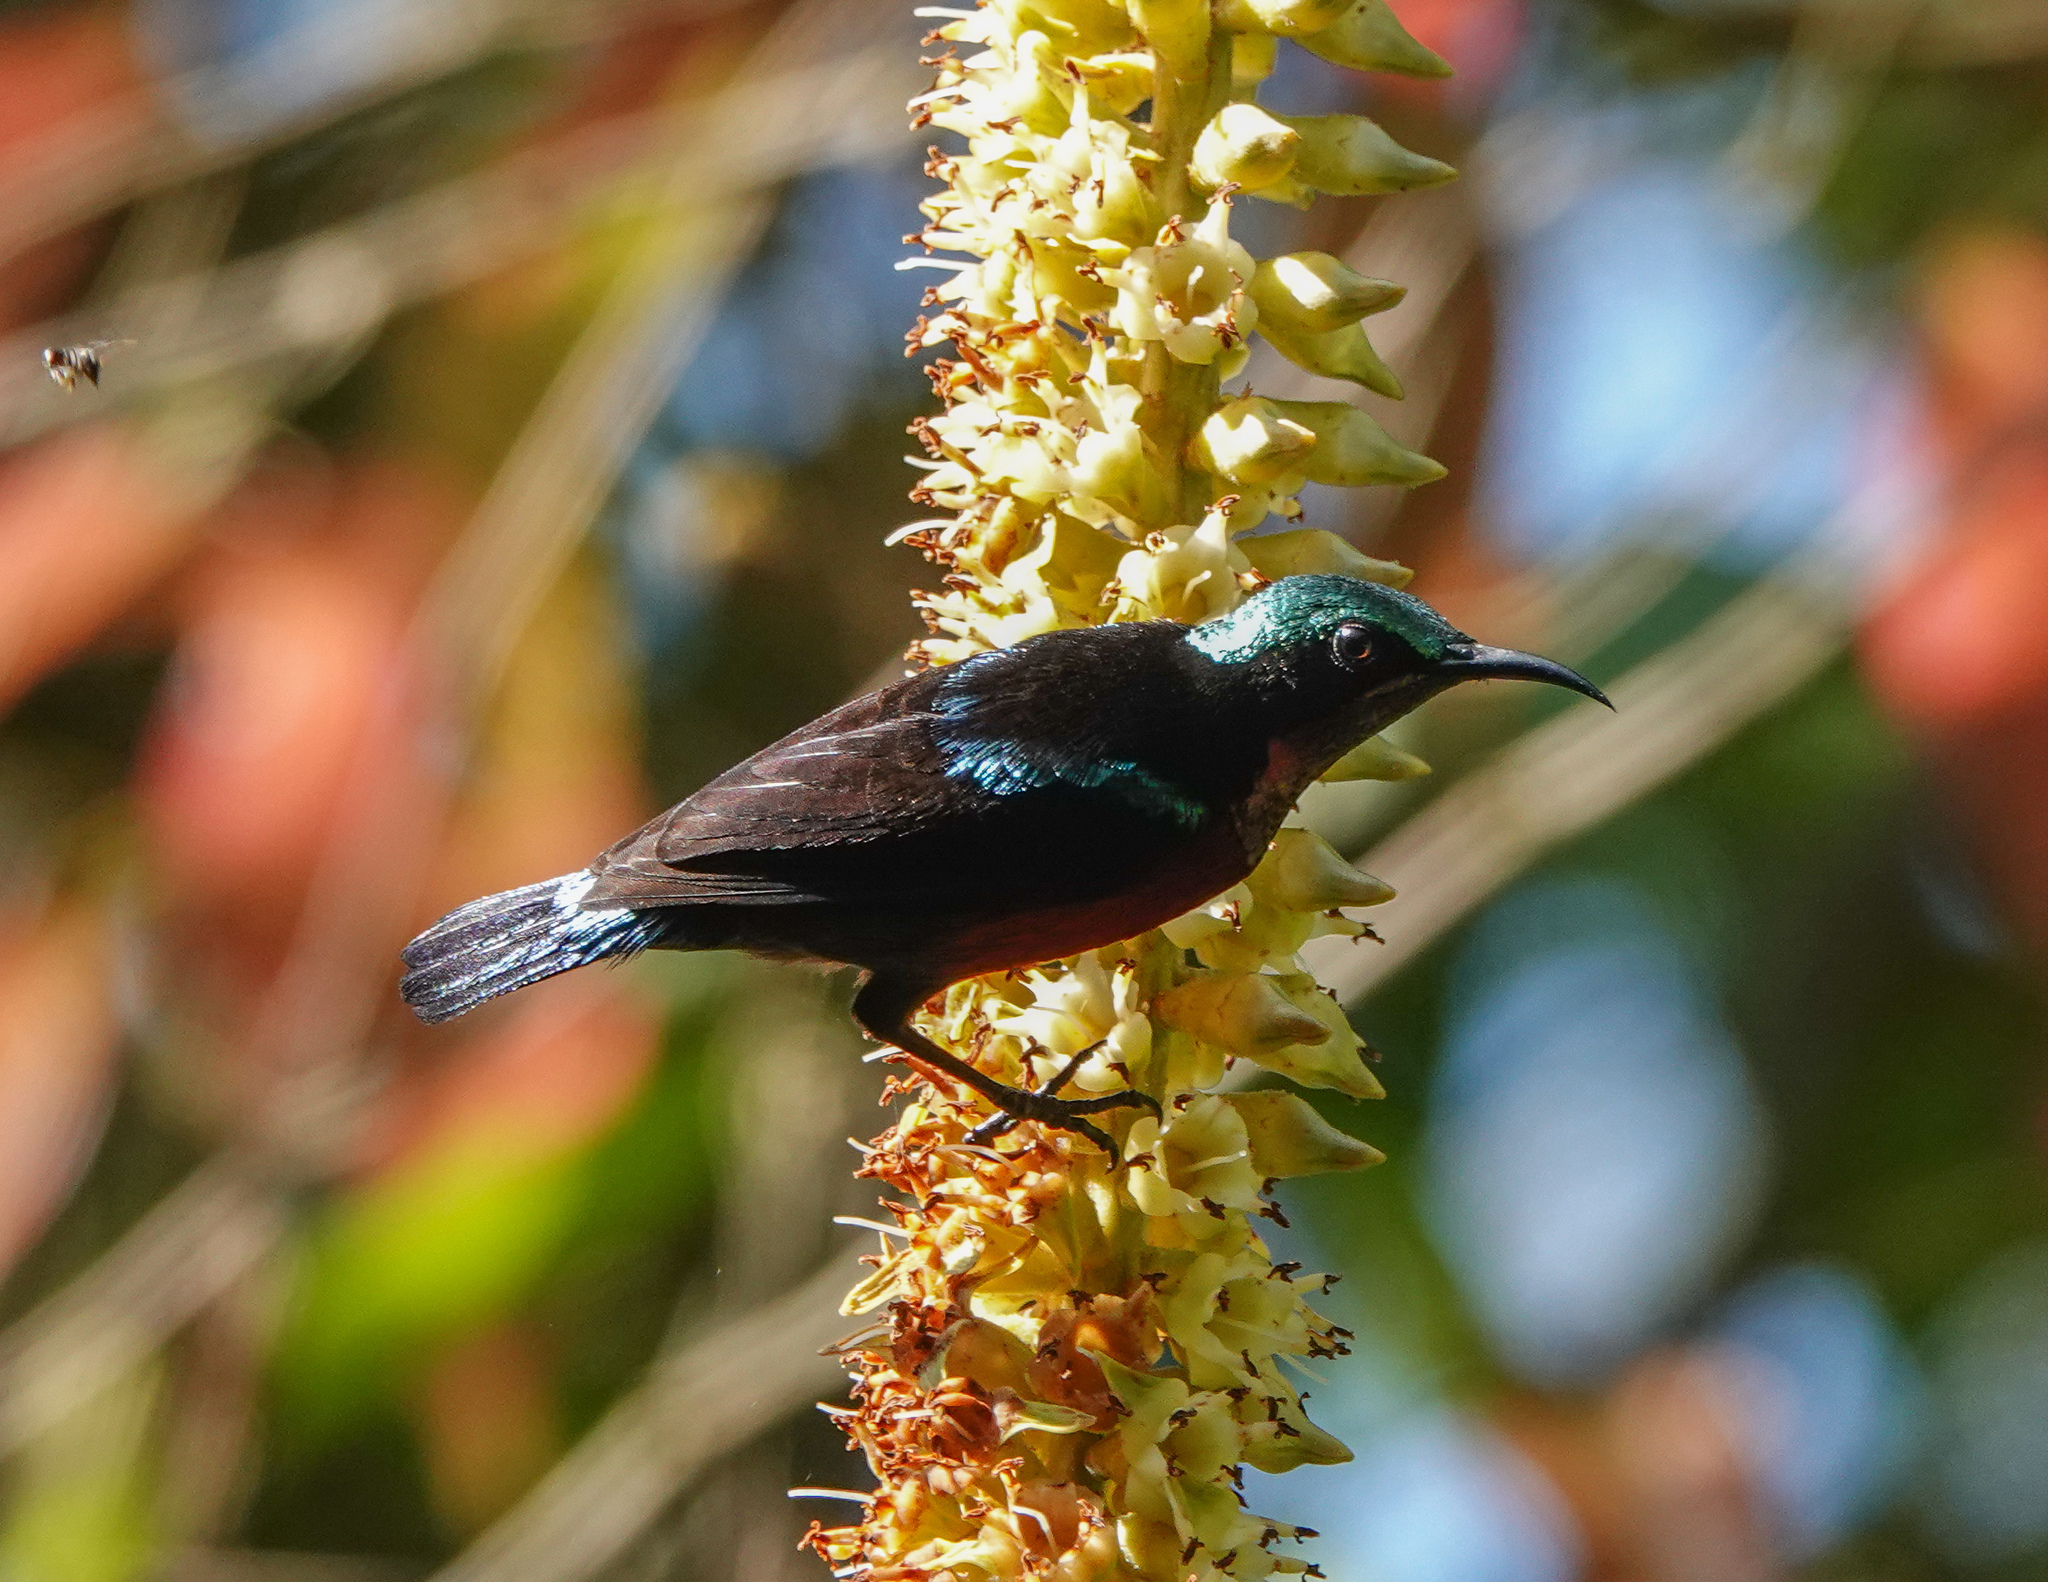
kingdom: Animalia
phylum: Chordata
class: Aves
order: Passeriformes
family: Nectariniidae
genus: Leptocoma
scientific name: Leptocoma brasiliana
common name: Van hasselt's sunbird
